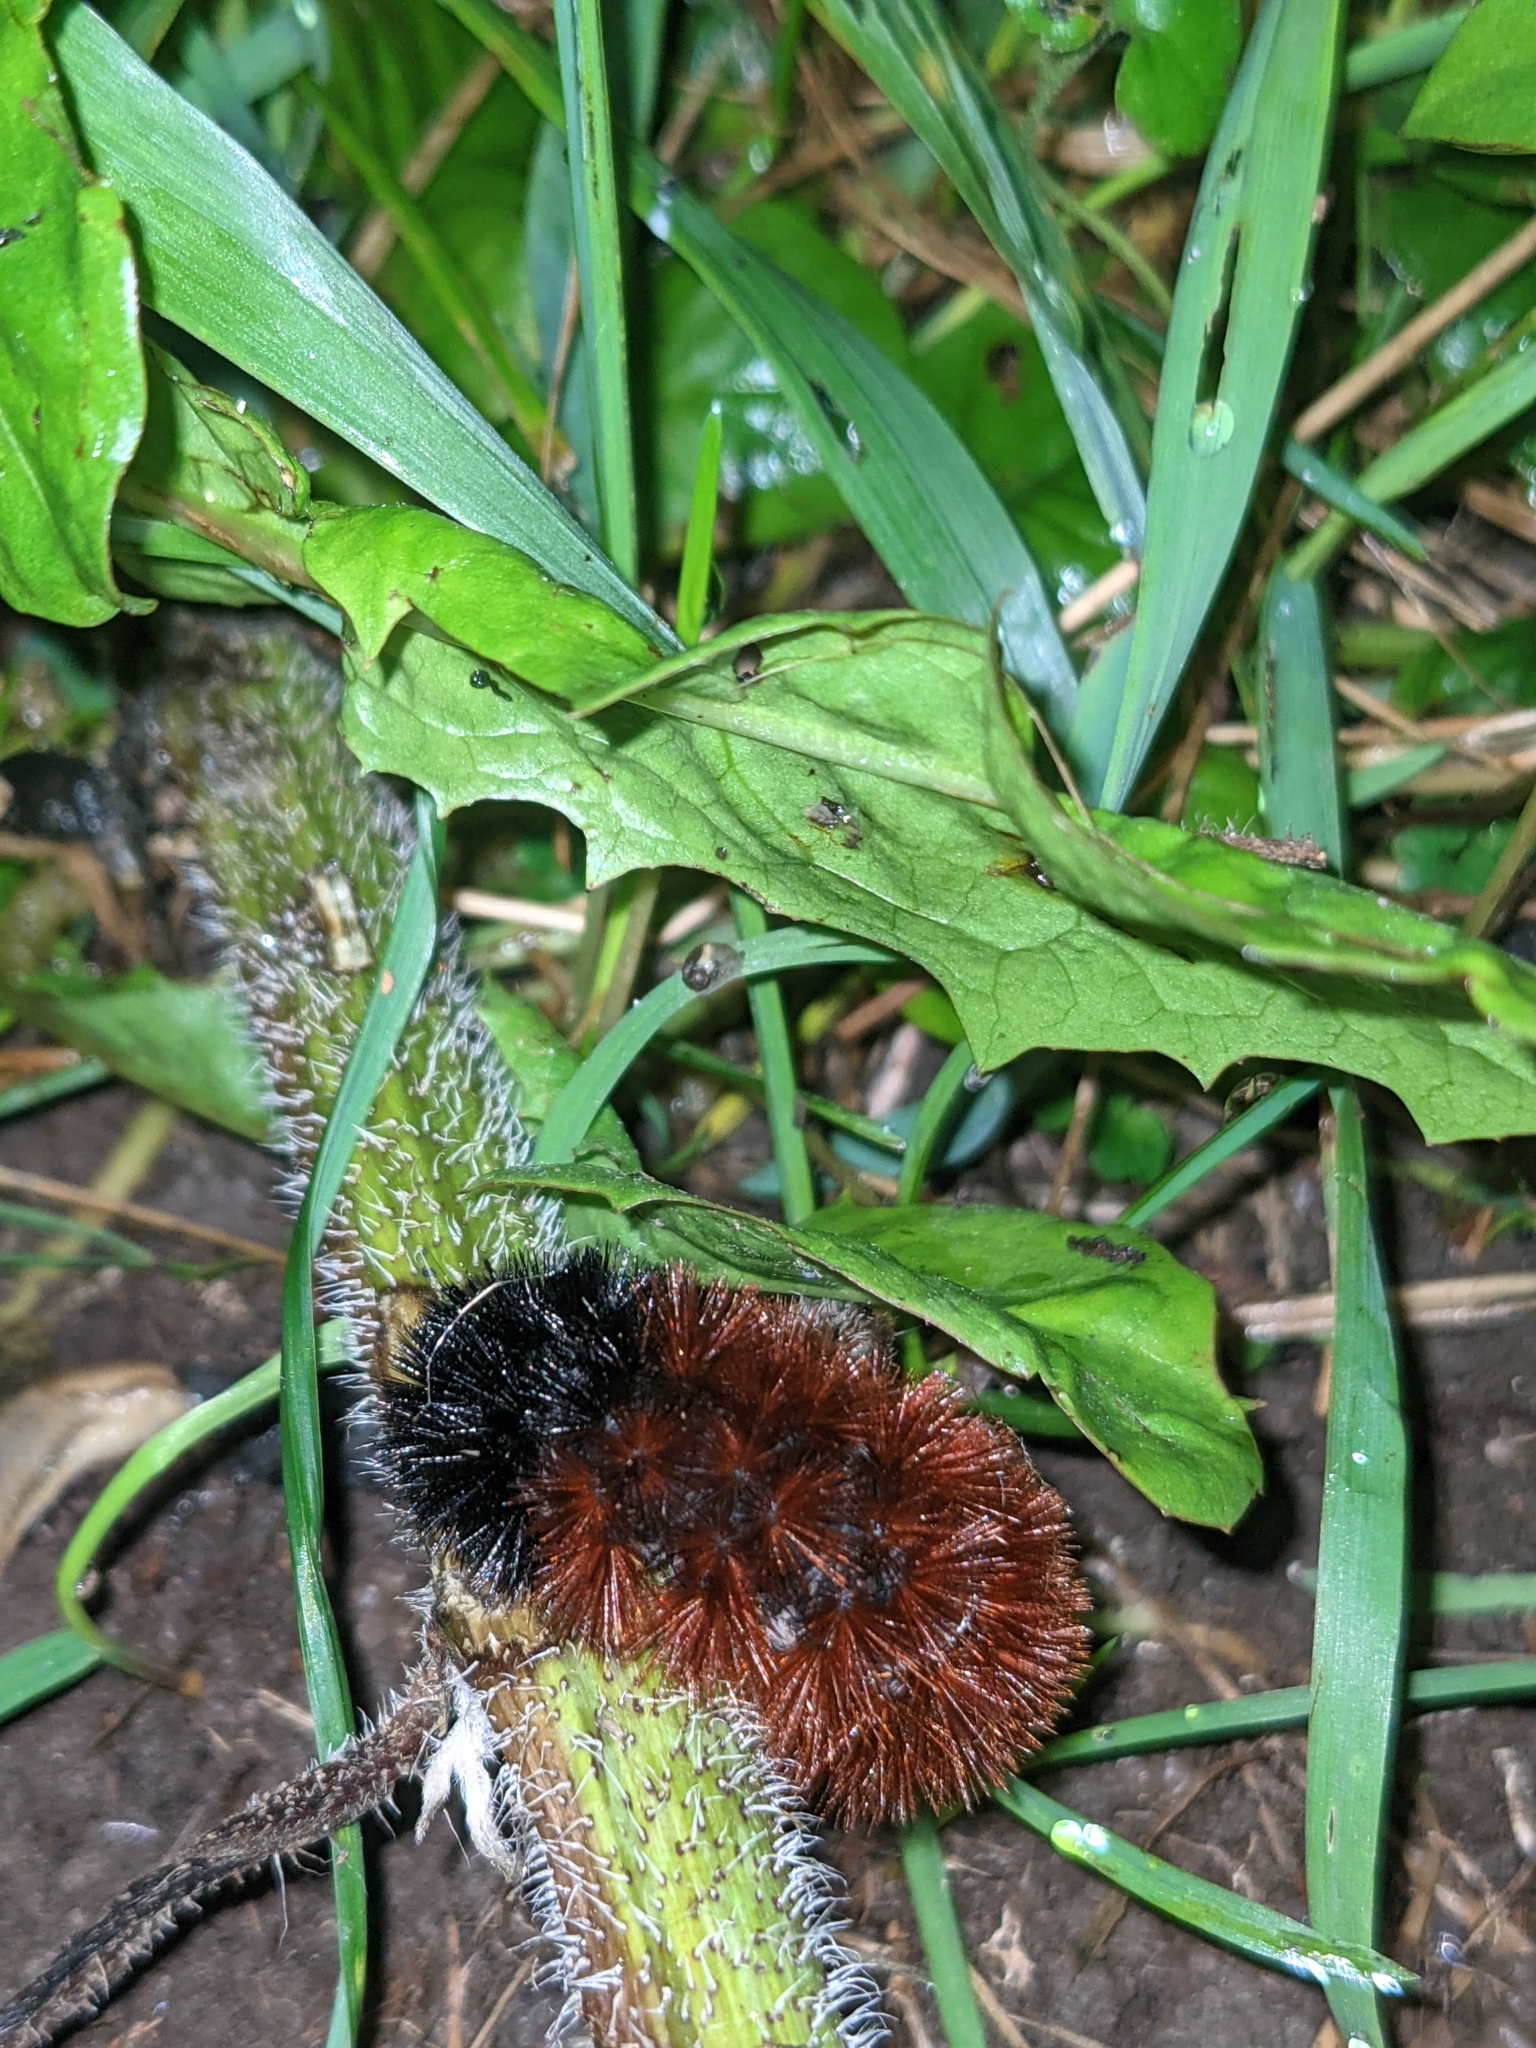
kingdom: Animalia
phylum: Arthropoda
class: Insecta
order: Lepidoptera
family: Erebidae
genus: Pyrrharctia
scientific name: Pyrrharctia isabella
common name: Isabella tiger moth
